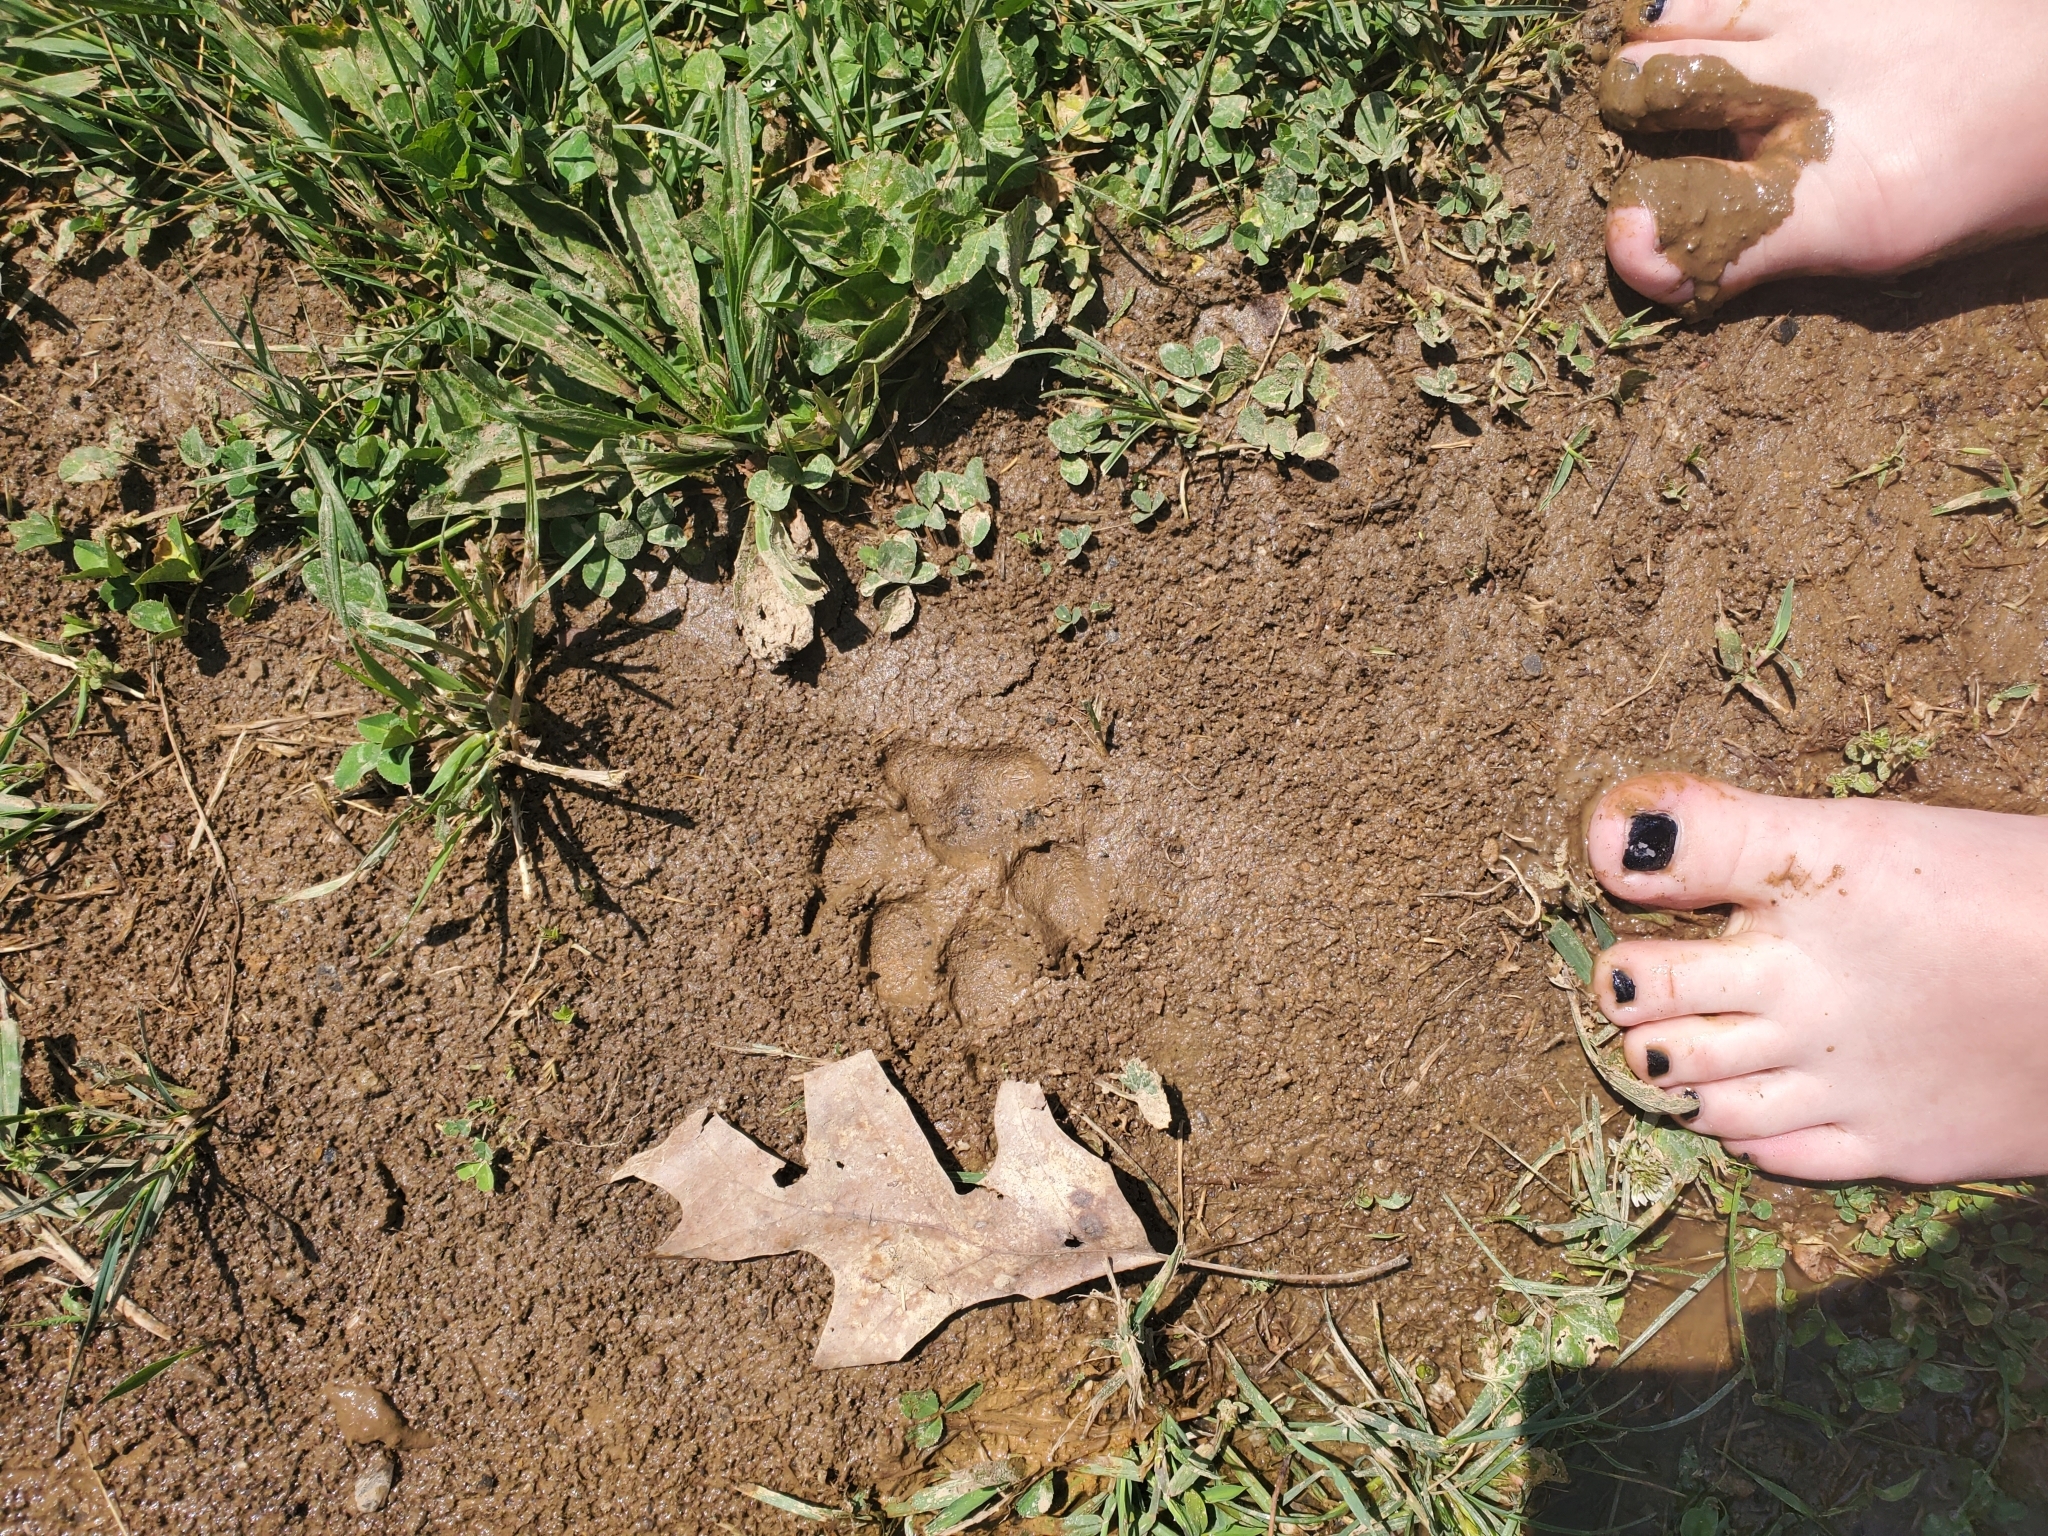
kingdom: Animalia
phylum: Chordata
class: Mammalia
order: Carnivora
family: Canidae
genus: Canis
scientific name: Canis lupus
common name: Gray wolf
